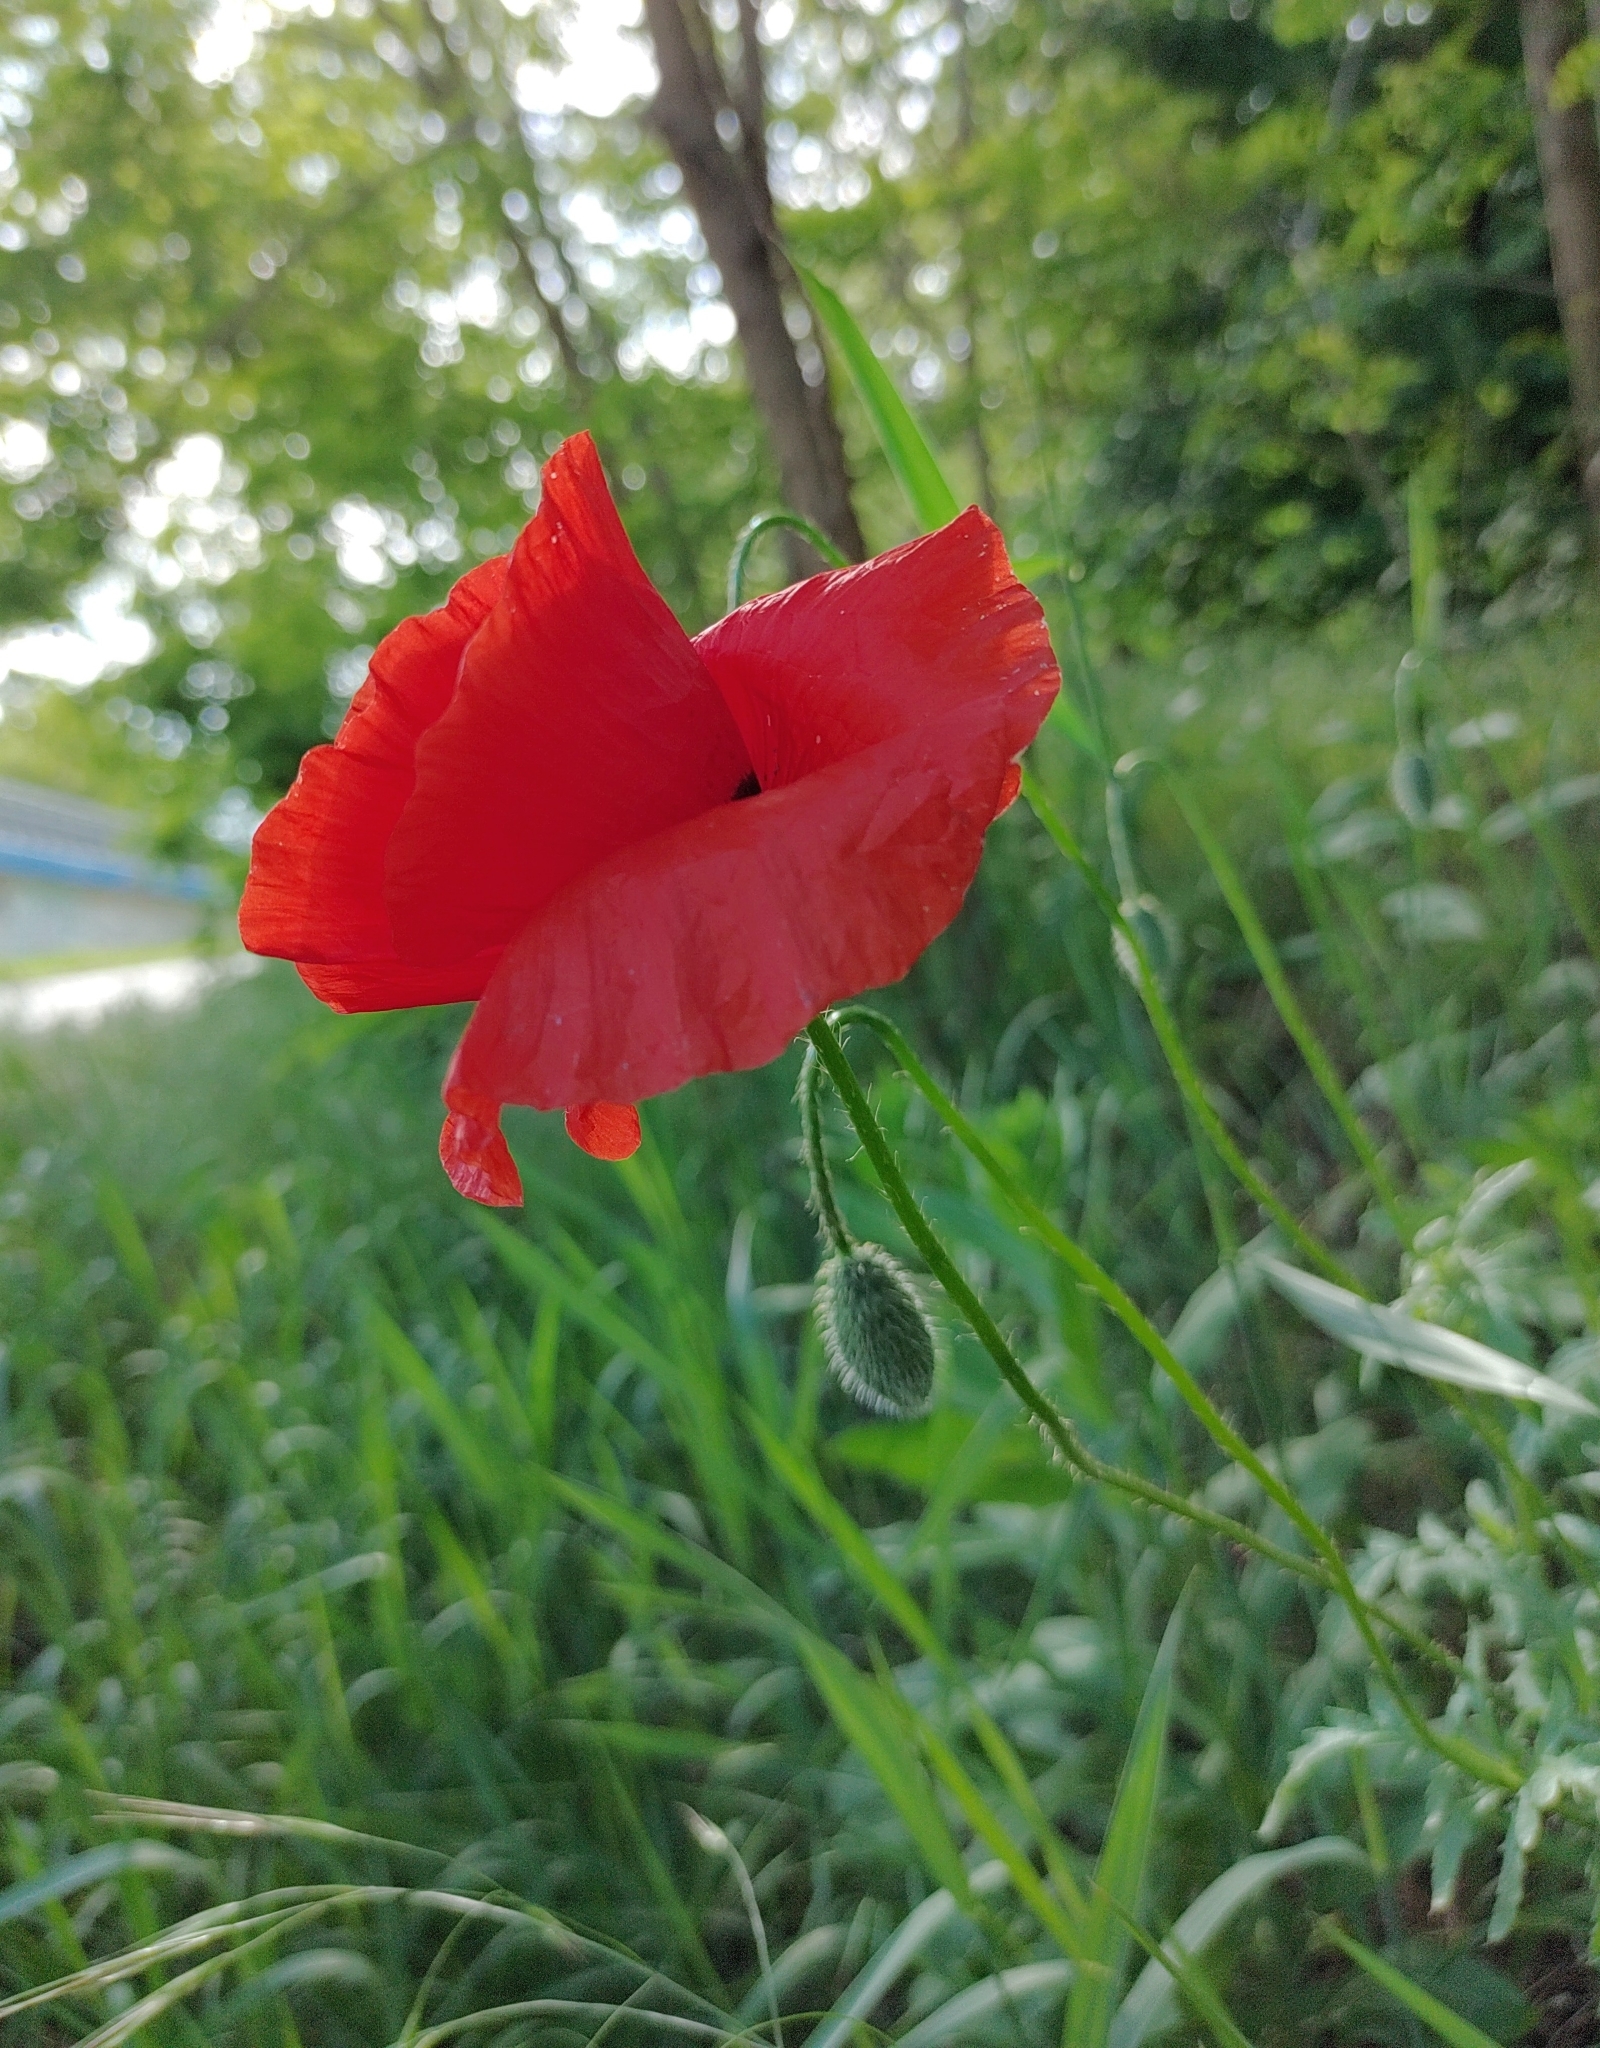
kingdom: Plantae
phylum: Tracheophyta
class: Magnoliopsida
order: Ranunculales
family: Papaveraceae
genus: Papaver
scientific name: Papaver rhoeas
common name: Corn poppy
